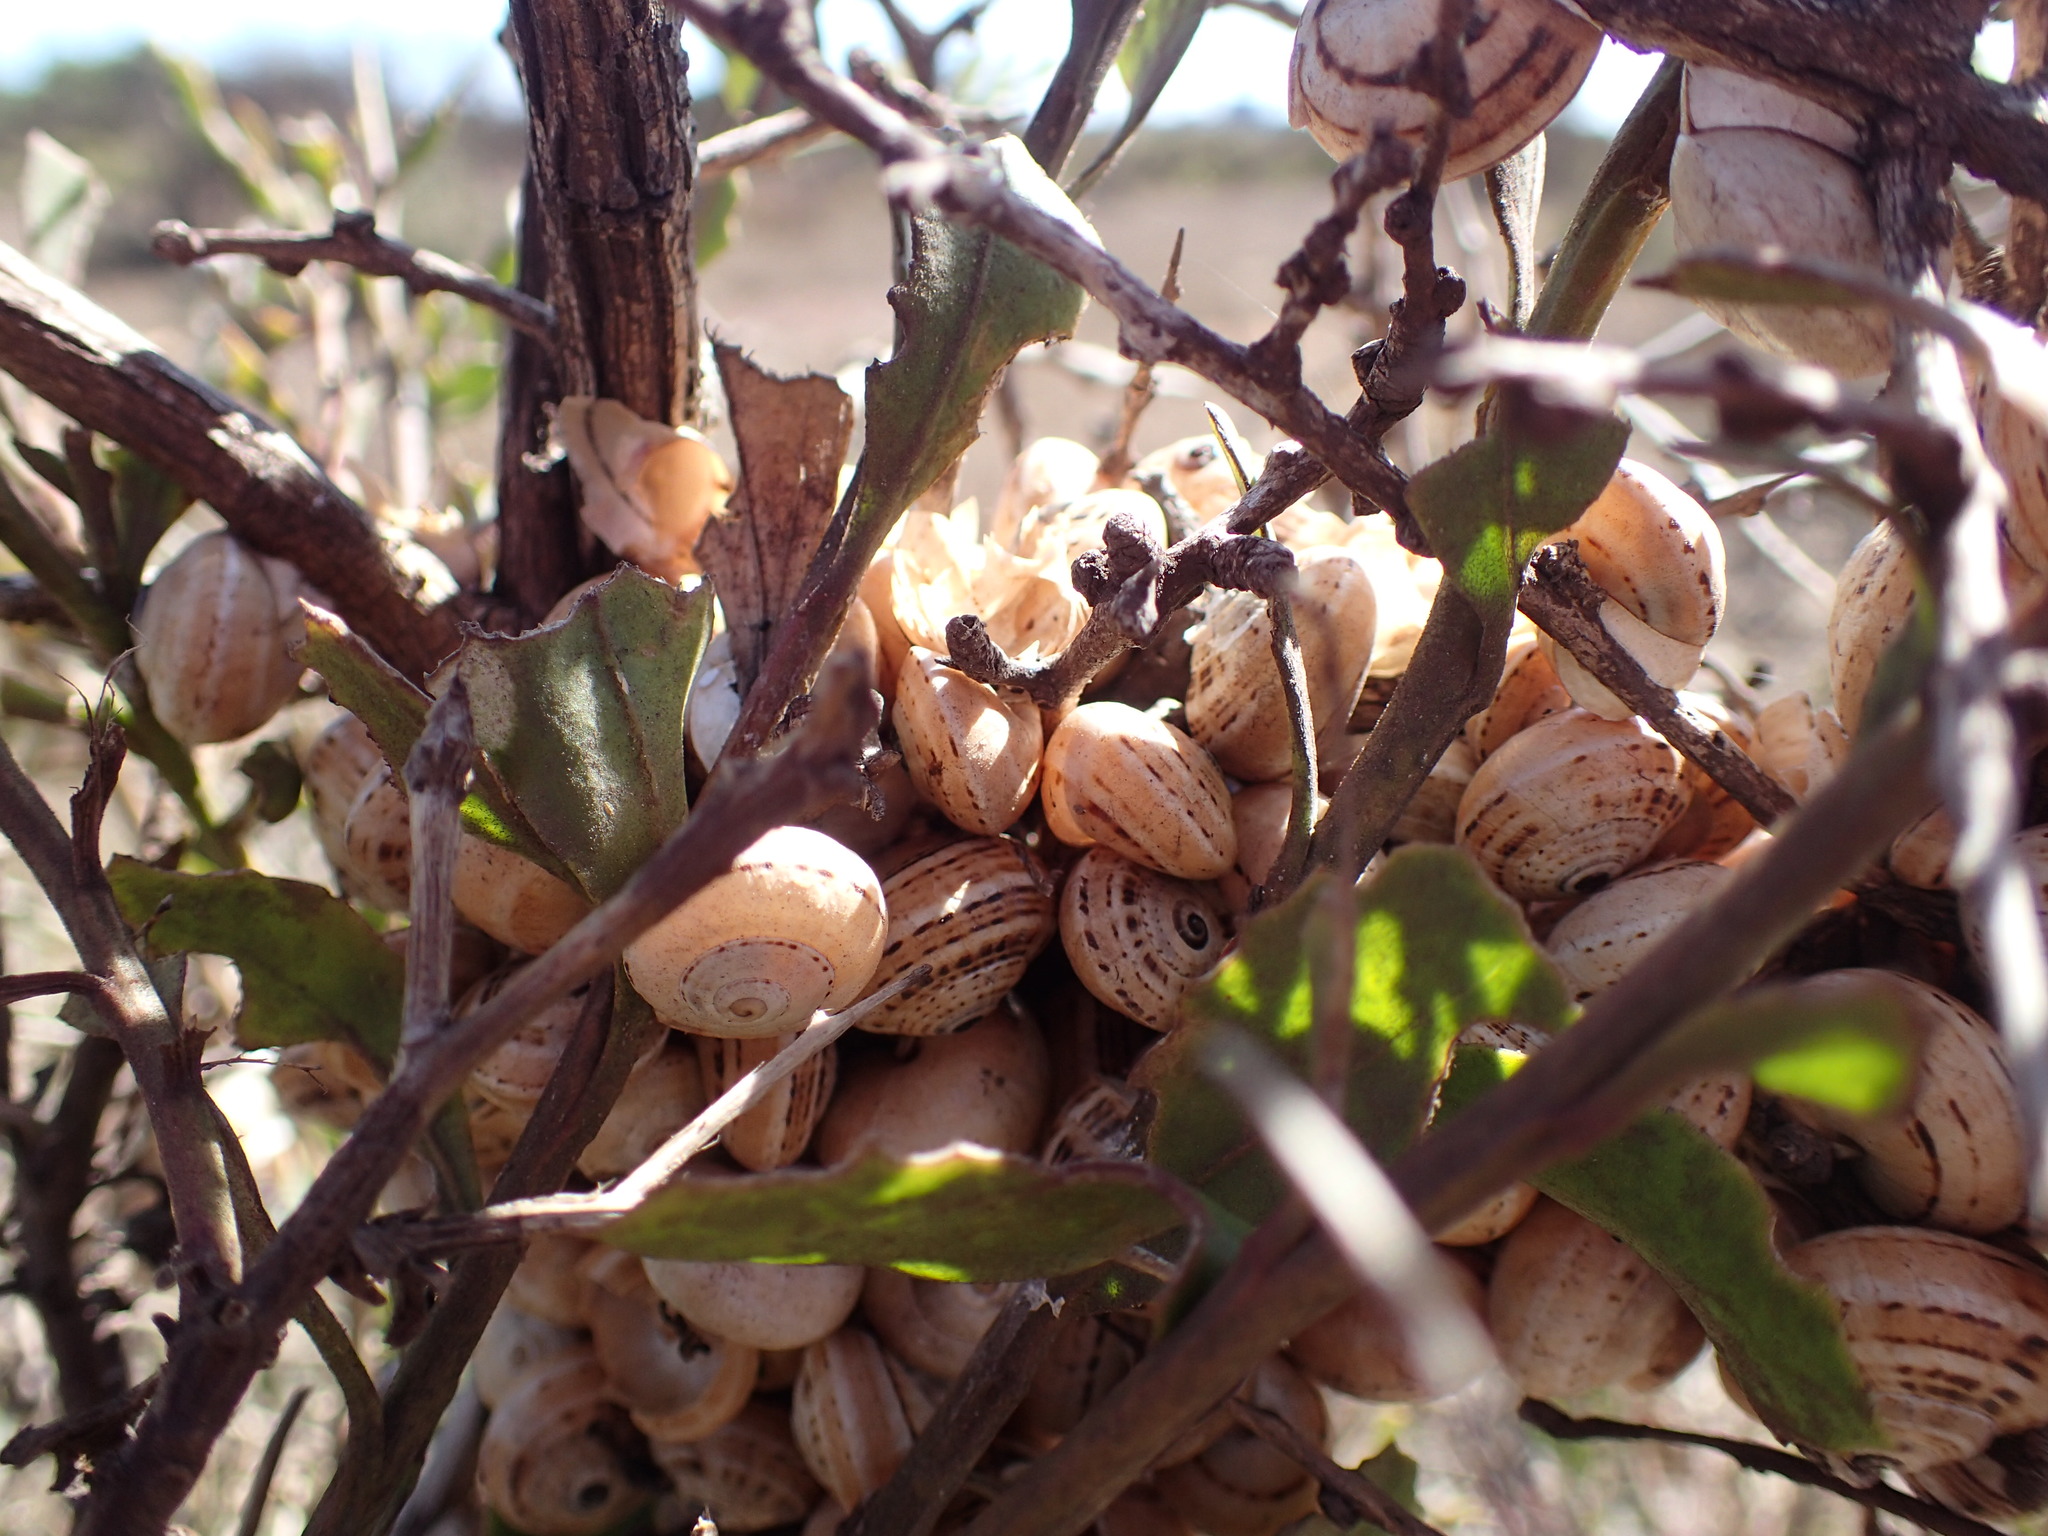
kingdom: Animalia
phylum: Mollusca
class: Gastropoda
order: Stylommatophora
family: Helicidae
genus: Theba
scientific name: Theba pisana
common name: White snail
